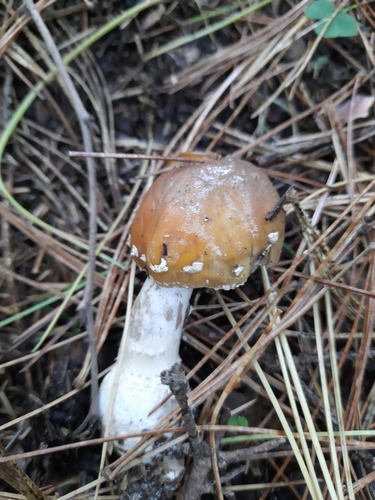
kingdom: Fungi
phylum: Basidiomycota
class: Agaricomycetes
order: Agaricales
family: Amanitaceae
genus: Amanita
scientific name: Amanita regalis
